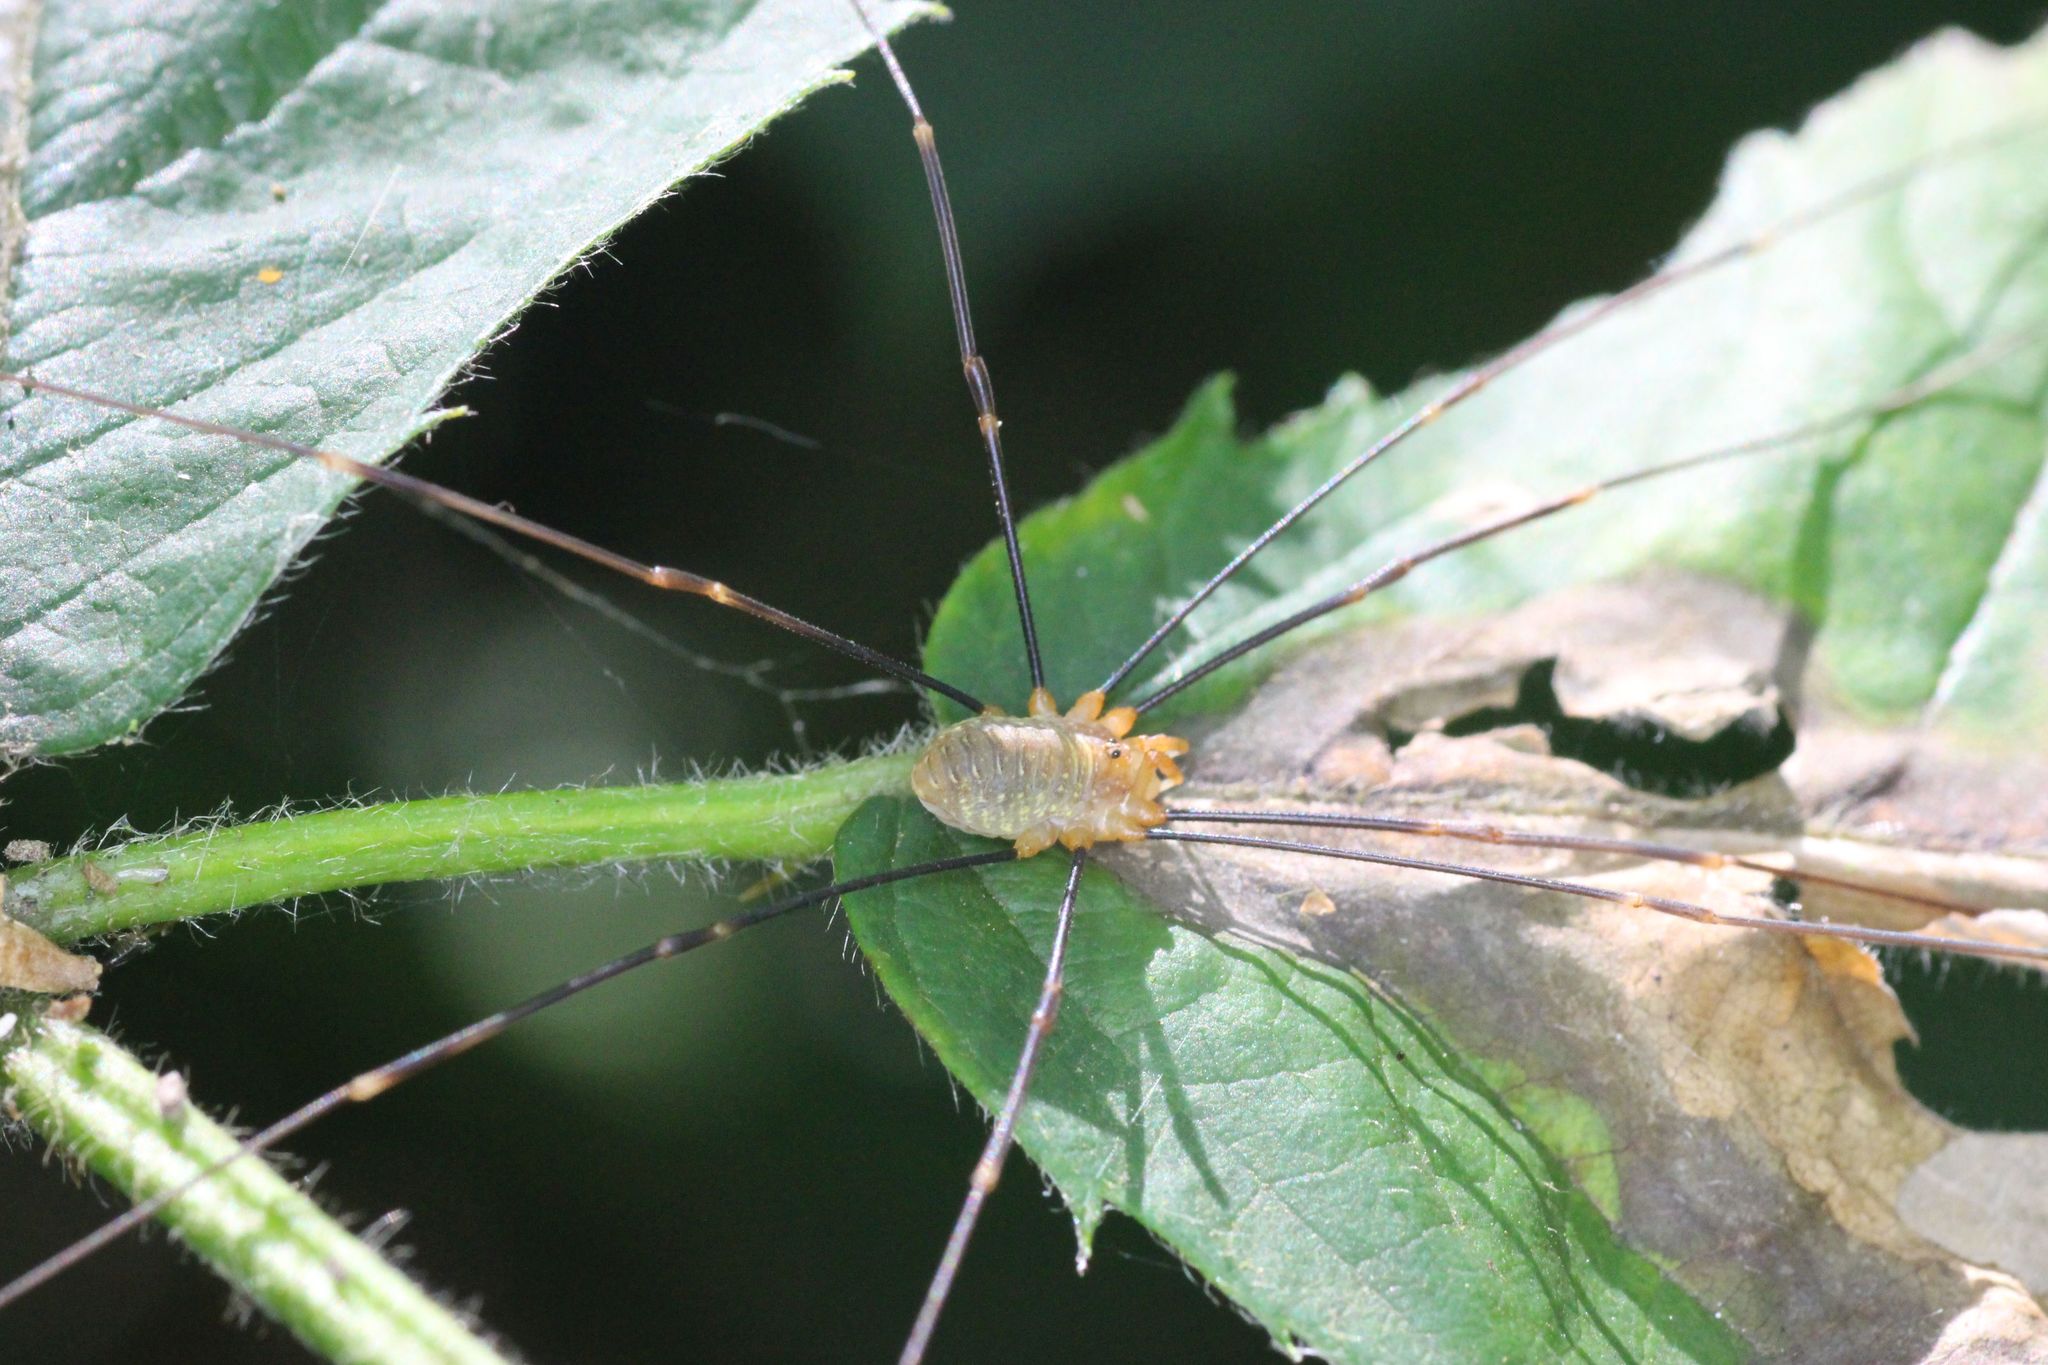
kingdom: Animalia
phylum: Arthropoda
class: Arachnida
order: Opiliones
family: Phalangiidae
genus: Opilio
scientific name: Opilio canestrinii
